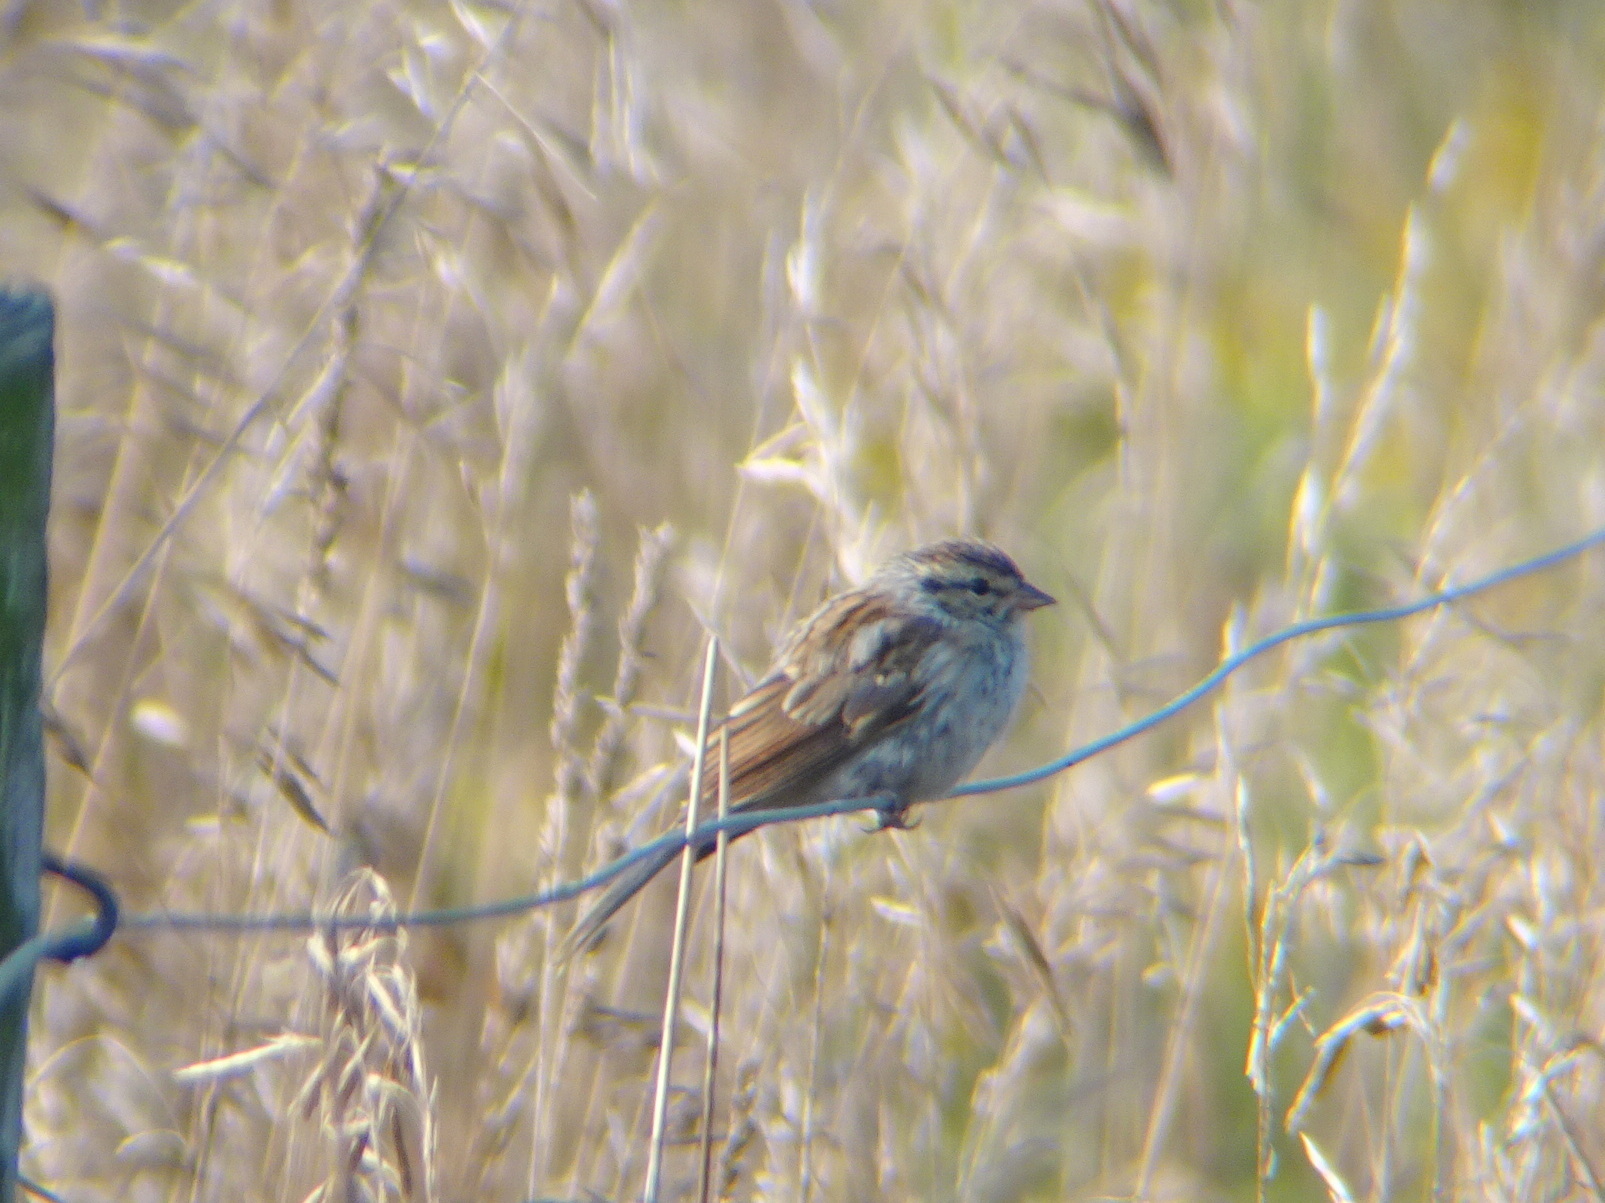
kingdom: Animalia
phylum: Chordata
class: Aves
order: Passeriformes
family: Passerellidae
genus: Spizella
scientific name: Spizella passerina
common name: Chipping sparrow
